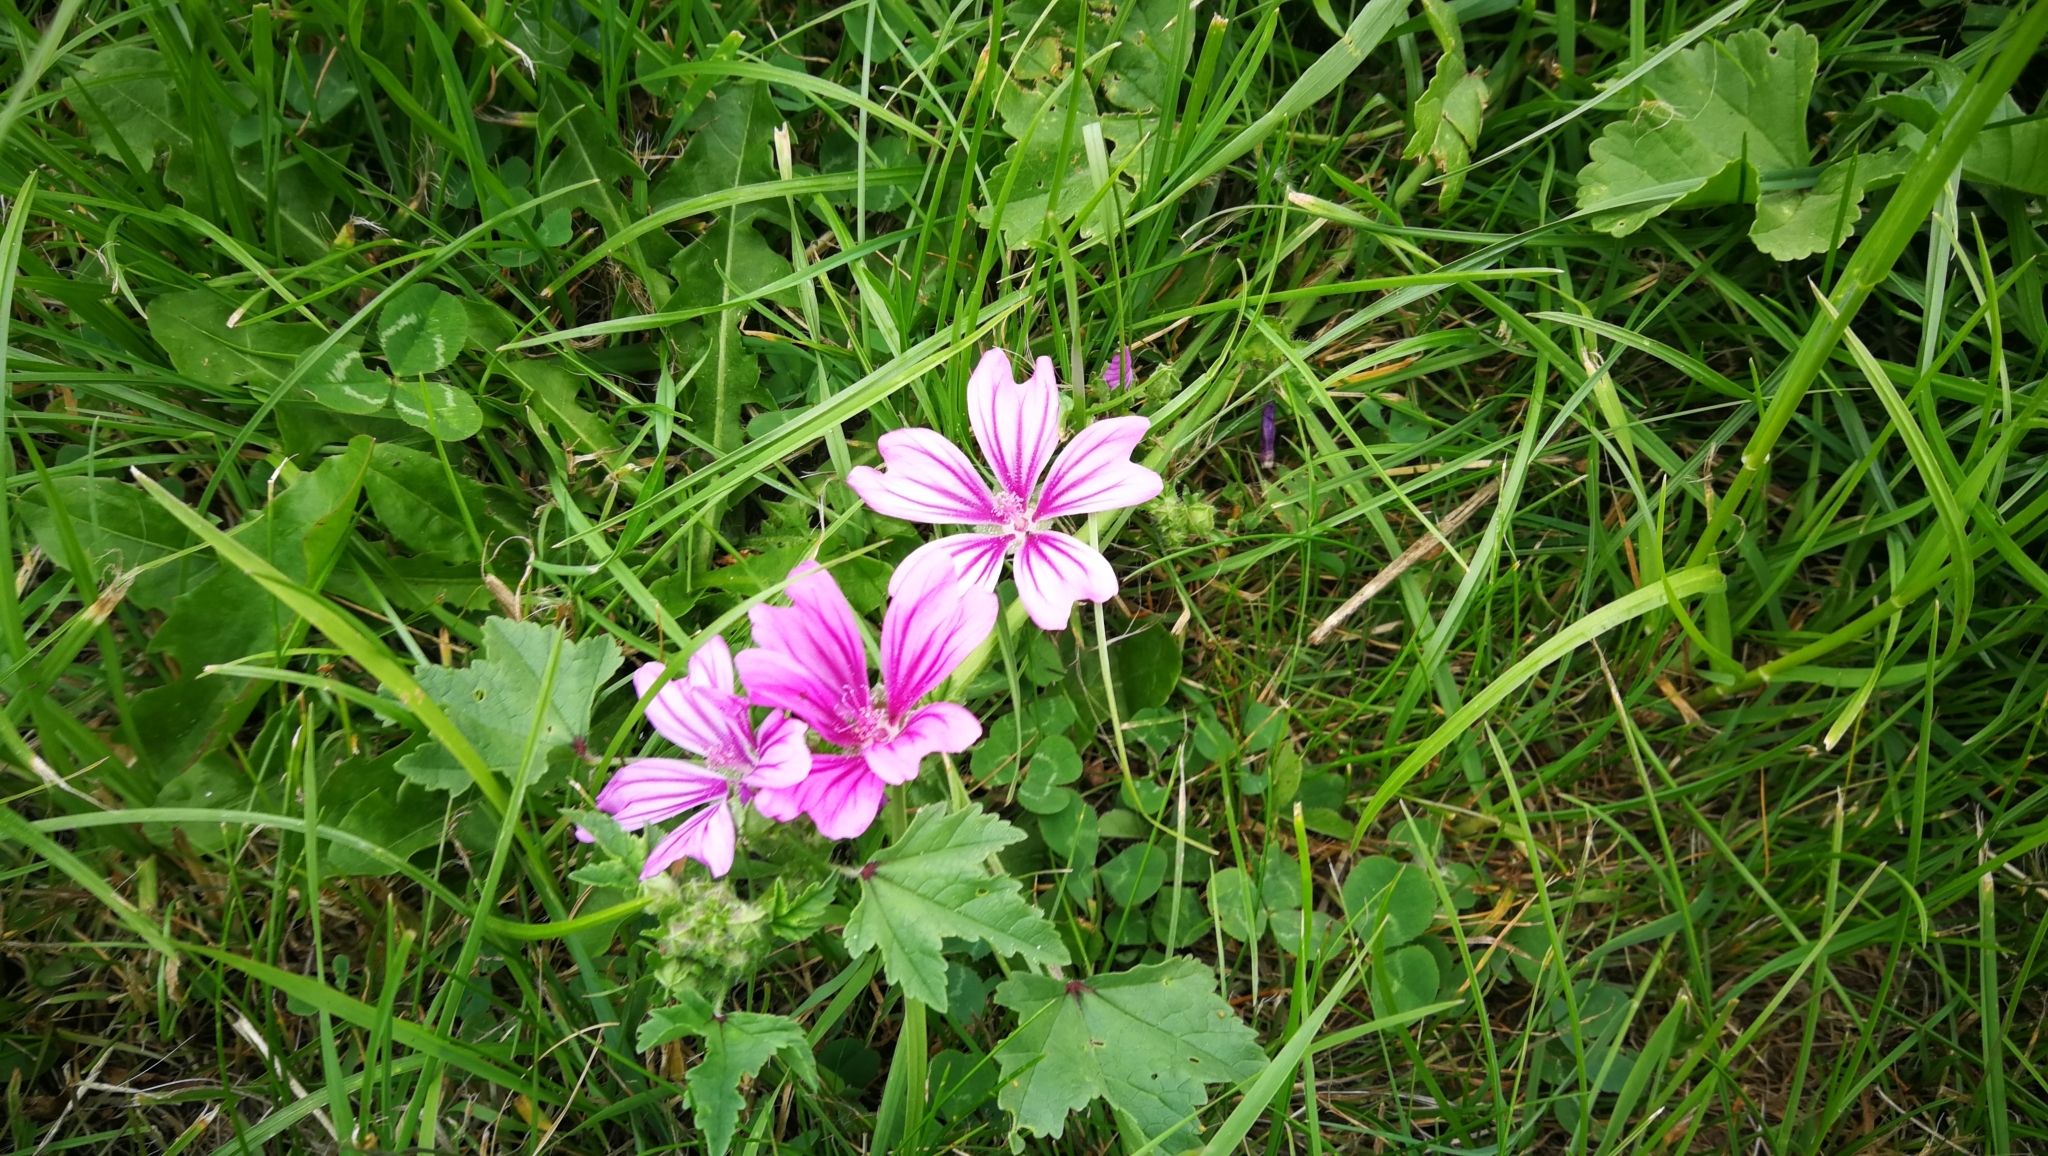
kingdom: Plantae
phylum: Tracheophyta
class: Magnoliopsida
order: Malvales
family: Malvaceae
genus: Malva
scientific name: Malva sylvestris
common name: Common mallow
